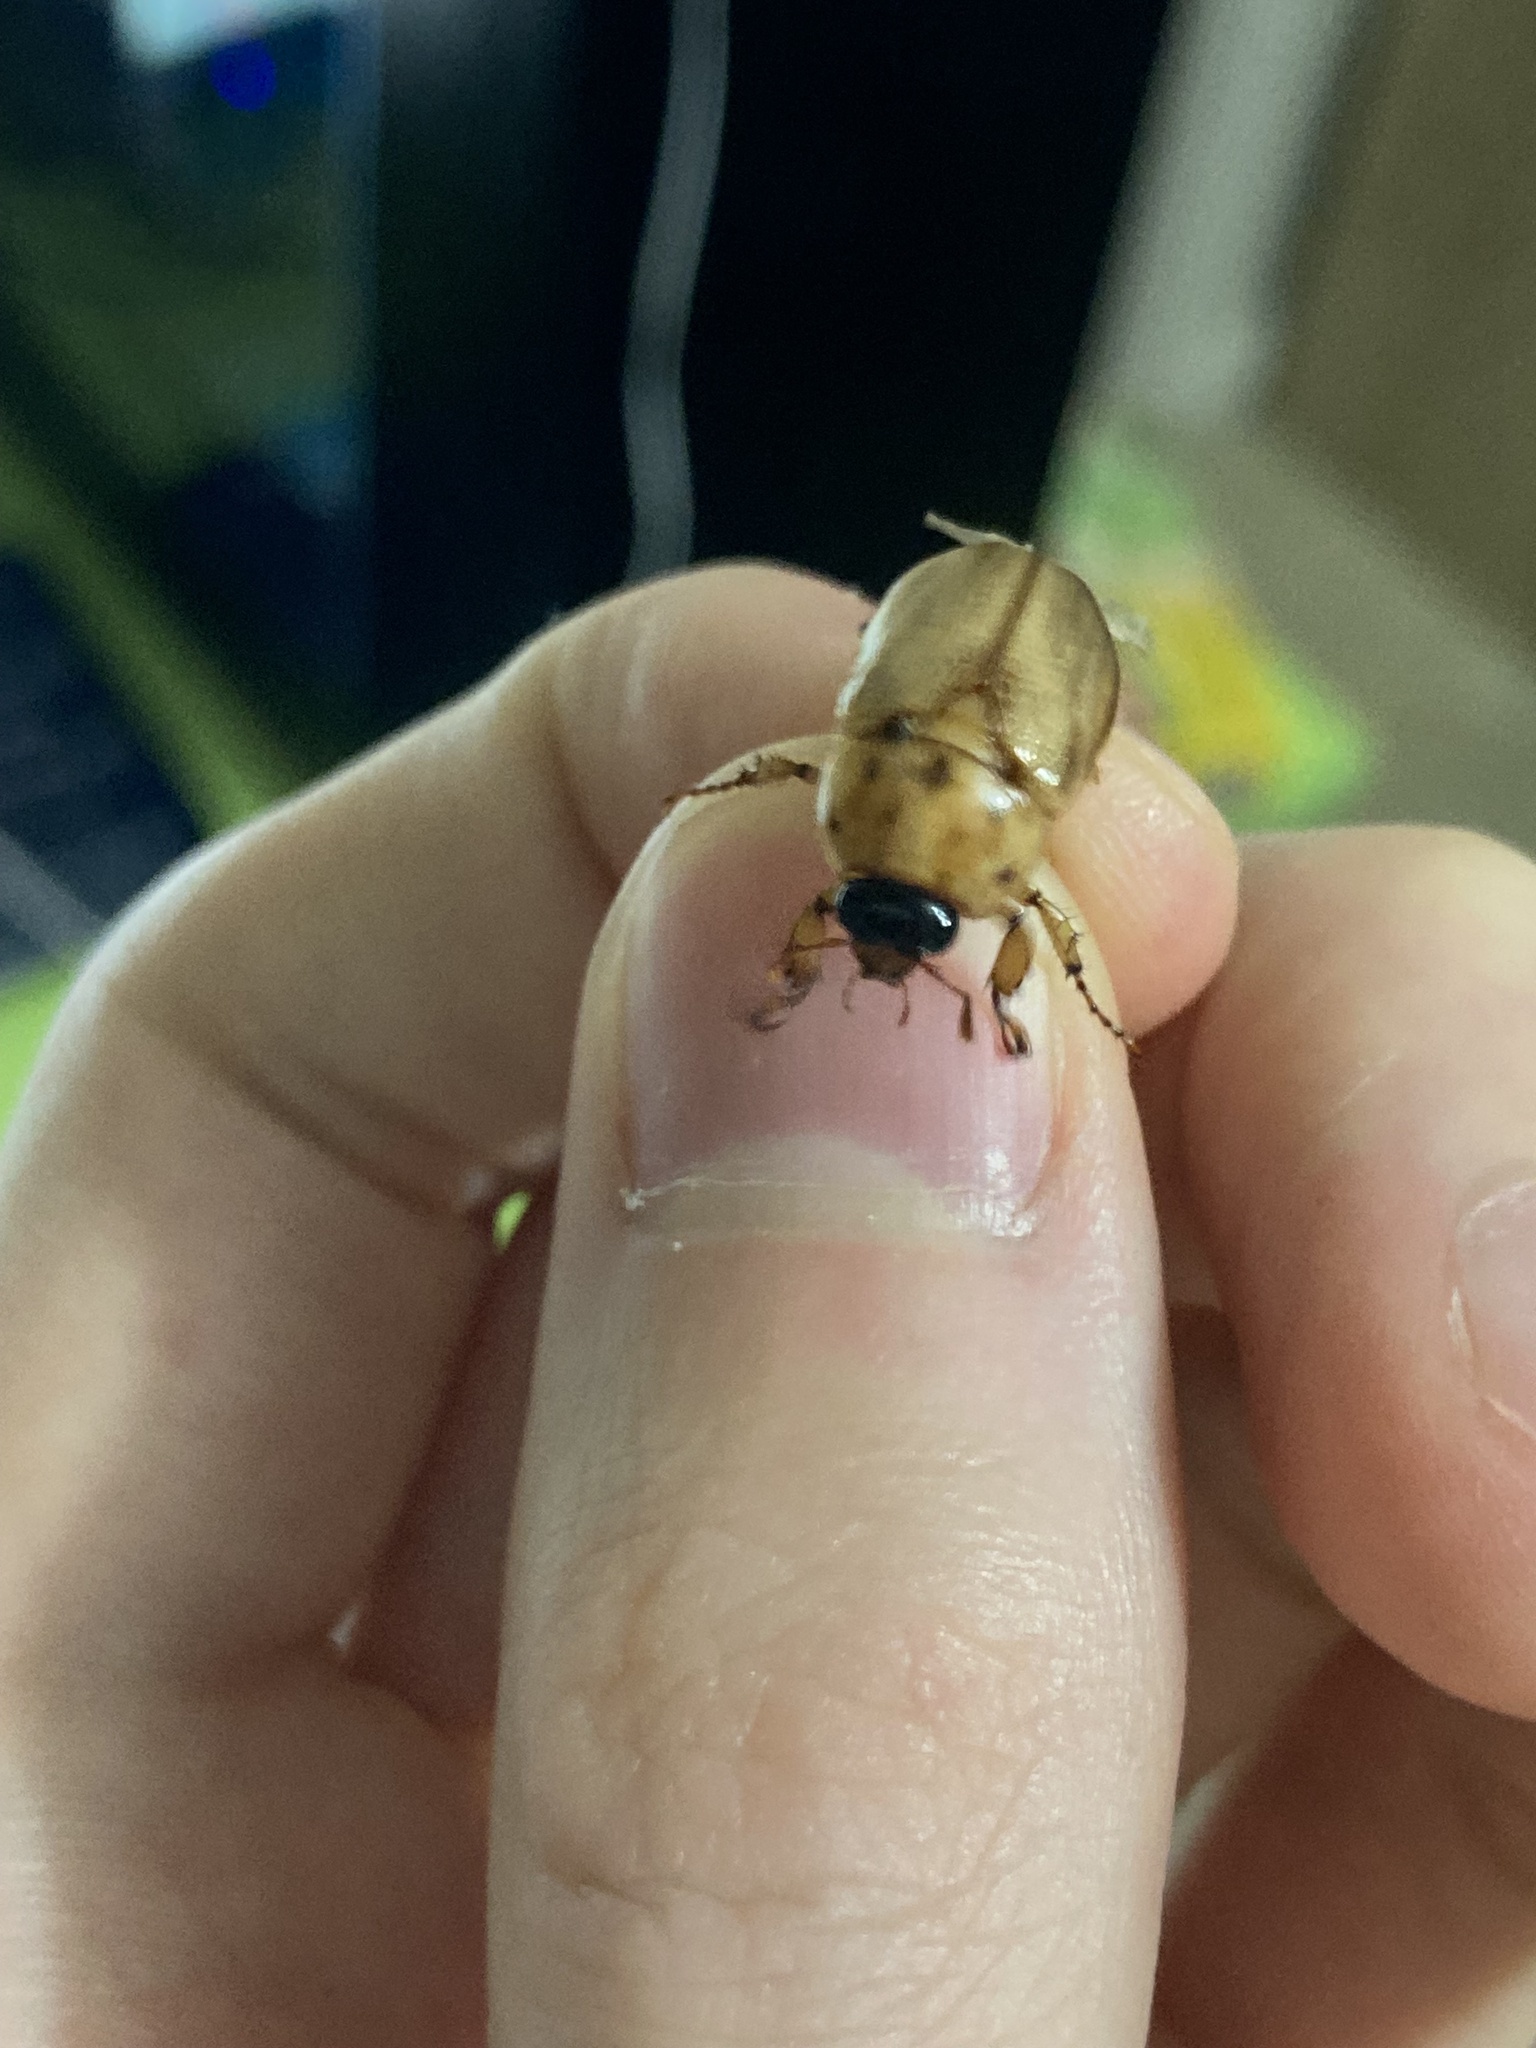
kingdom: Animalia
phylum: Arthropoda
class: Insecta
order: Coleoptera
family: Scarabaeidae
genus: Cyclocephala
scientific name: Cyclocephala signaticollis
